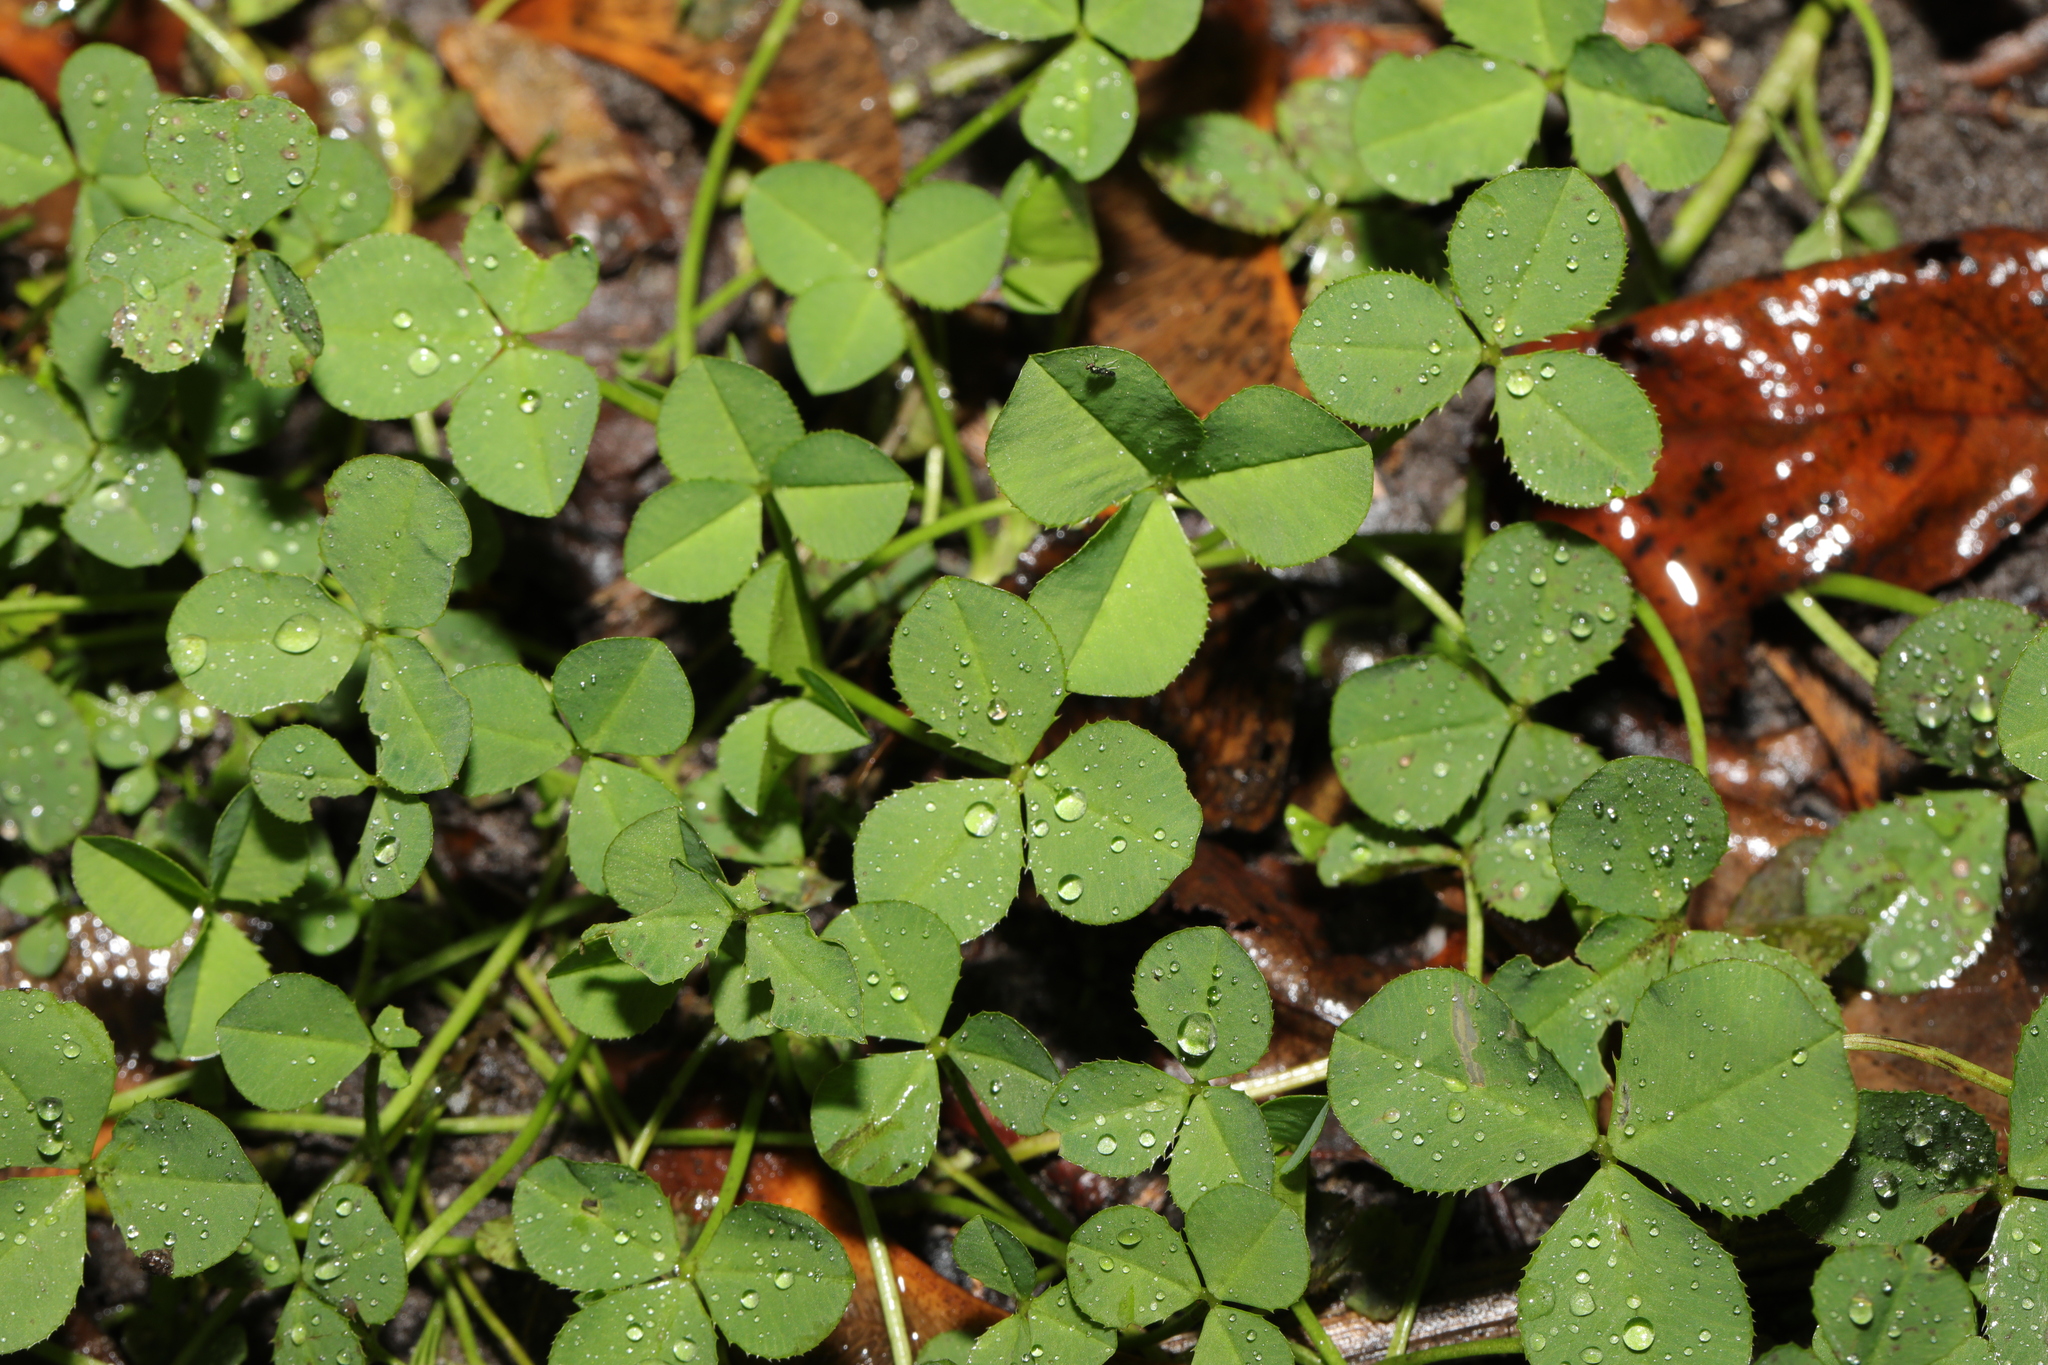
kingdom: Plantae
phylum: Tracheophyta
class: Magnoliopsida
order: Fabales
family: Fabaceae
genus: Trifolium
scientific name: Trifolium repens
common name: White clover
